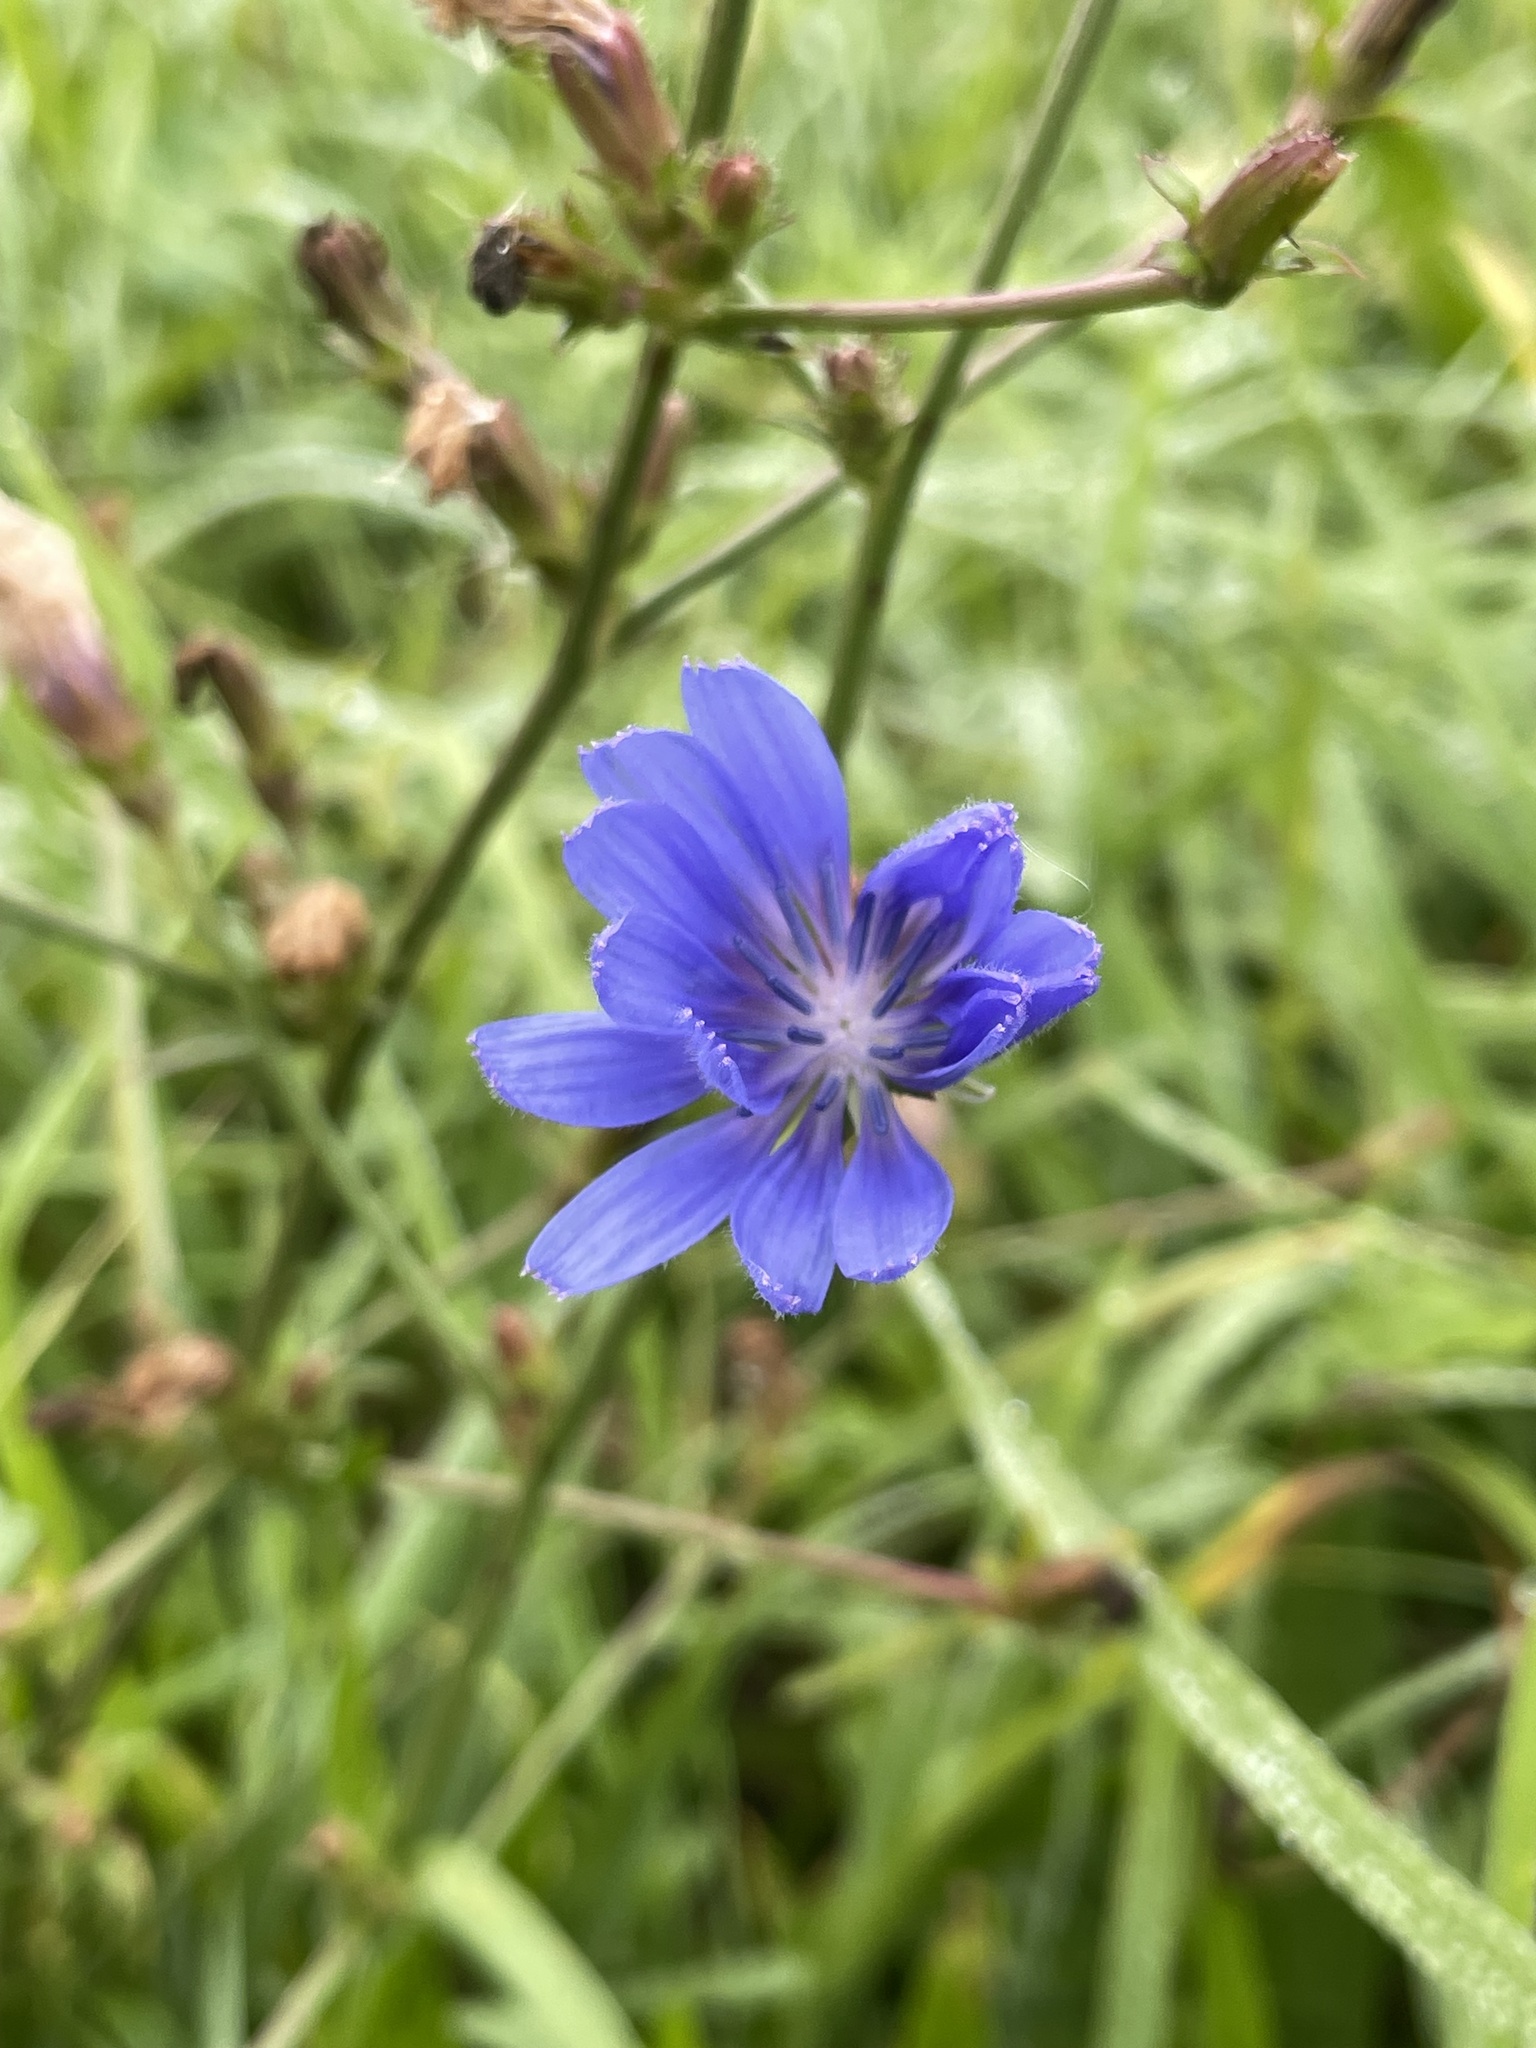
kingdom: Plantae
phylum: Tracheophyta
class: Magnoliopsida
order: Asterales
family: Asteraceae
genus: Cichorium
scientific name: Cichorium intybus
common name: Chicory
